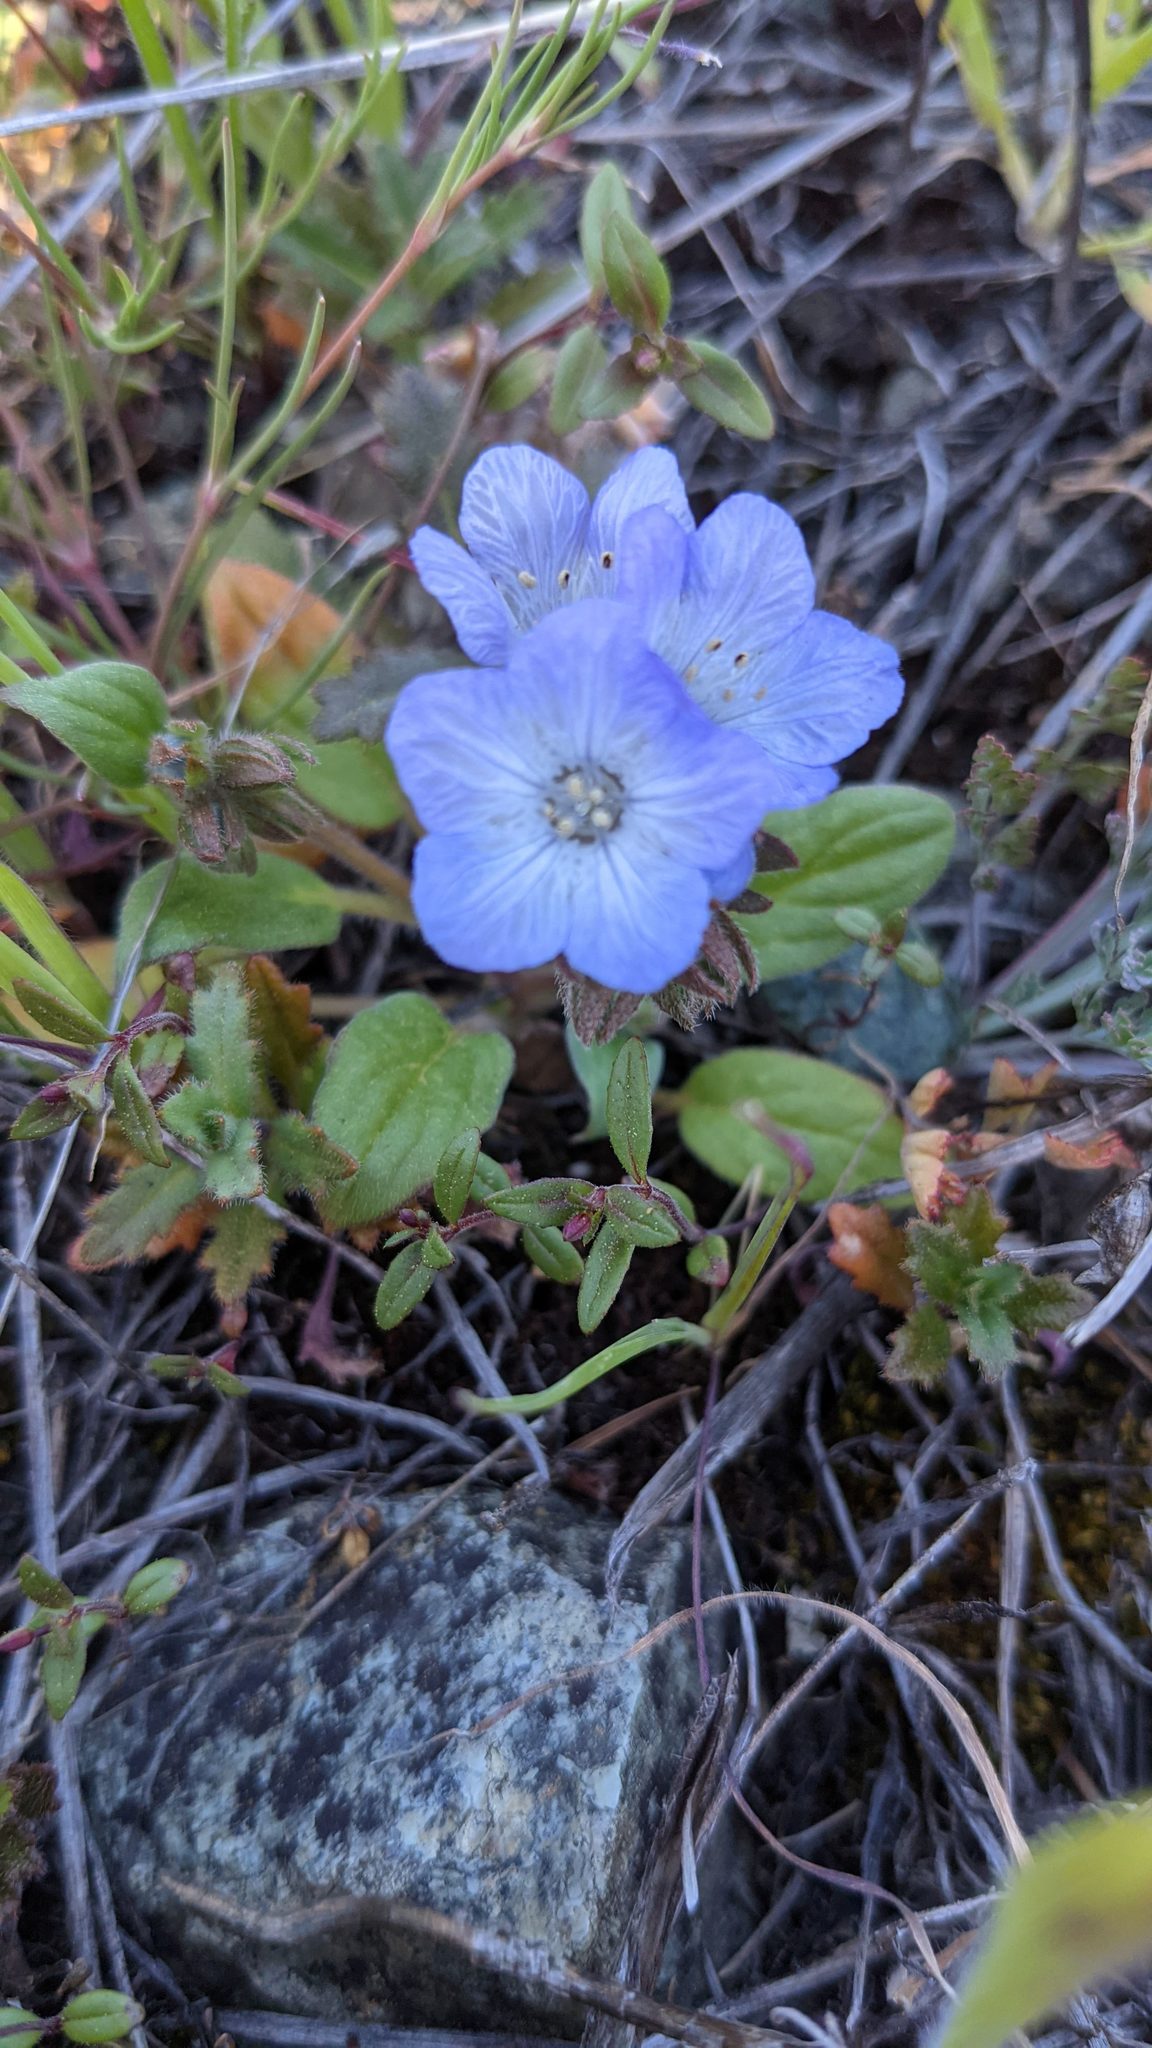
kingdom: Plantae
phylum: Tracheophyta
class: Magnoliopsida
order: Boraginales
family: Hydrophyllaceae
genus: Phacelia
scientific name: Phacelia divaricata
